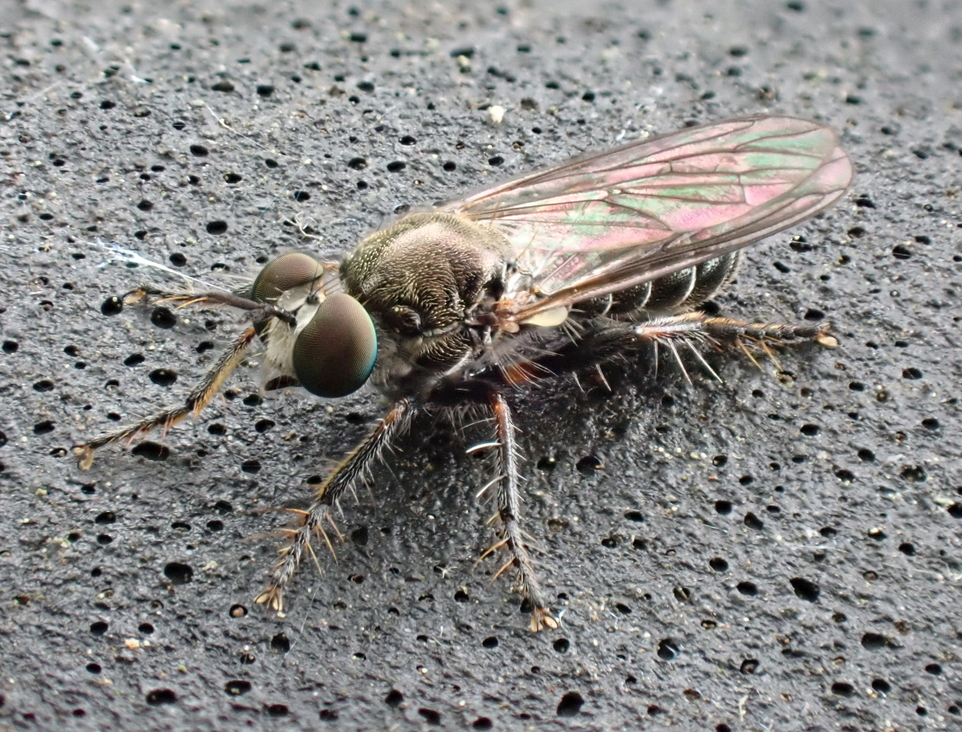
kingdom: Animalia
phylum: Arthropoda
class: Insecta
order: Diptera
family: Asilidae
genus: Atomosia
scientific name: Atomosia puella
